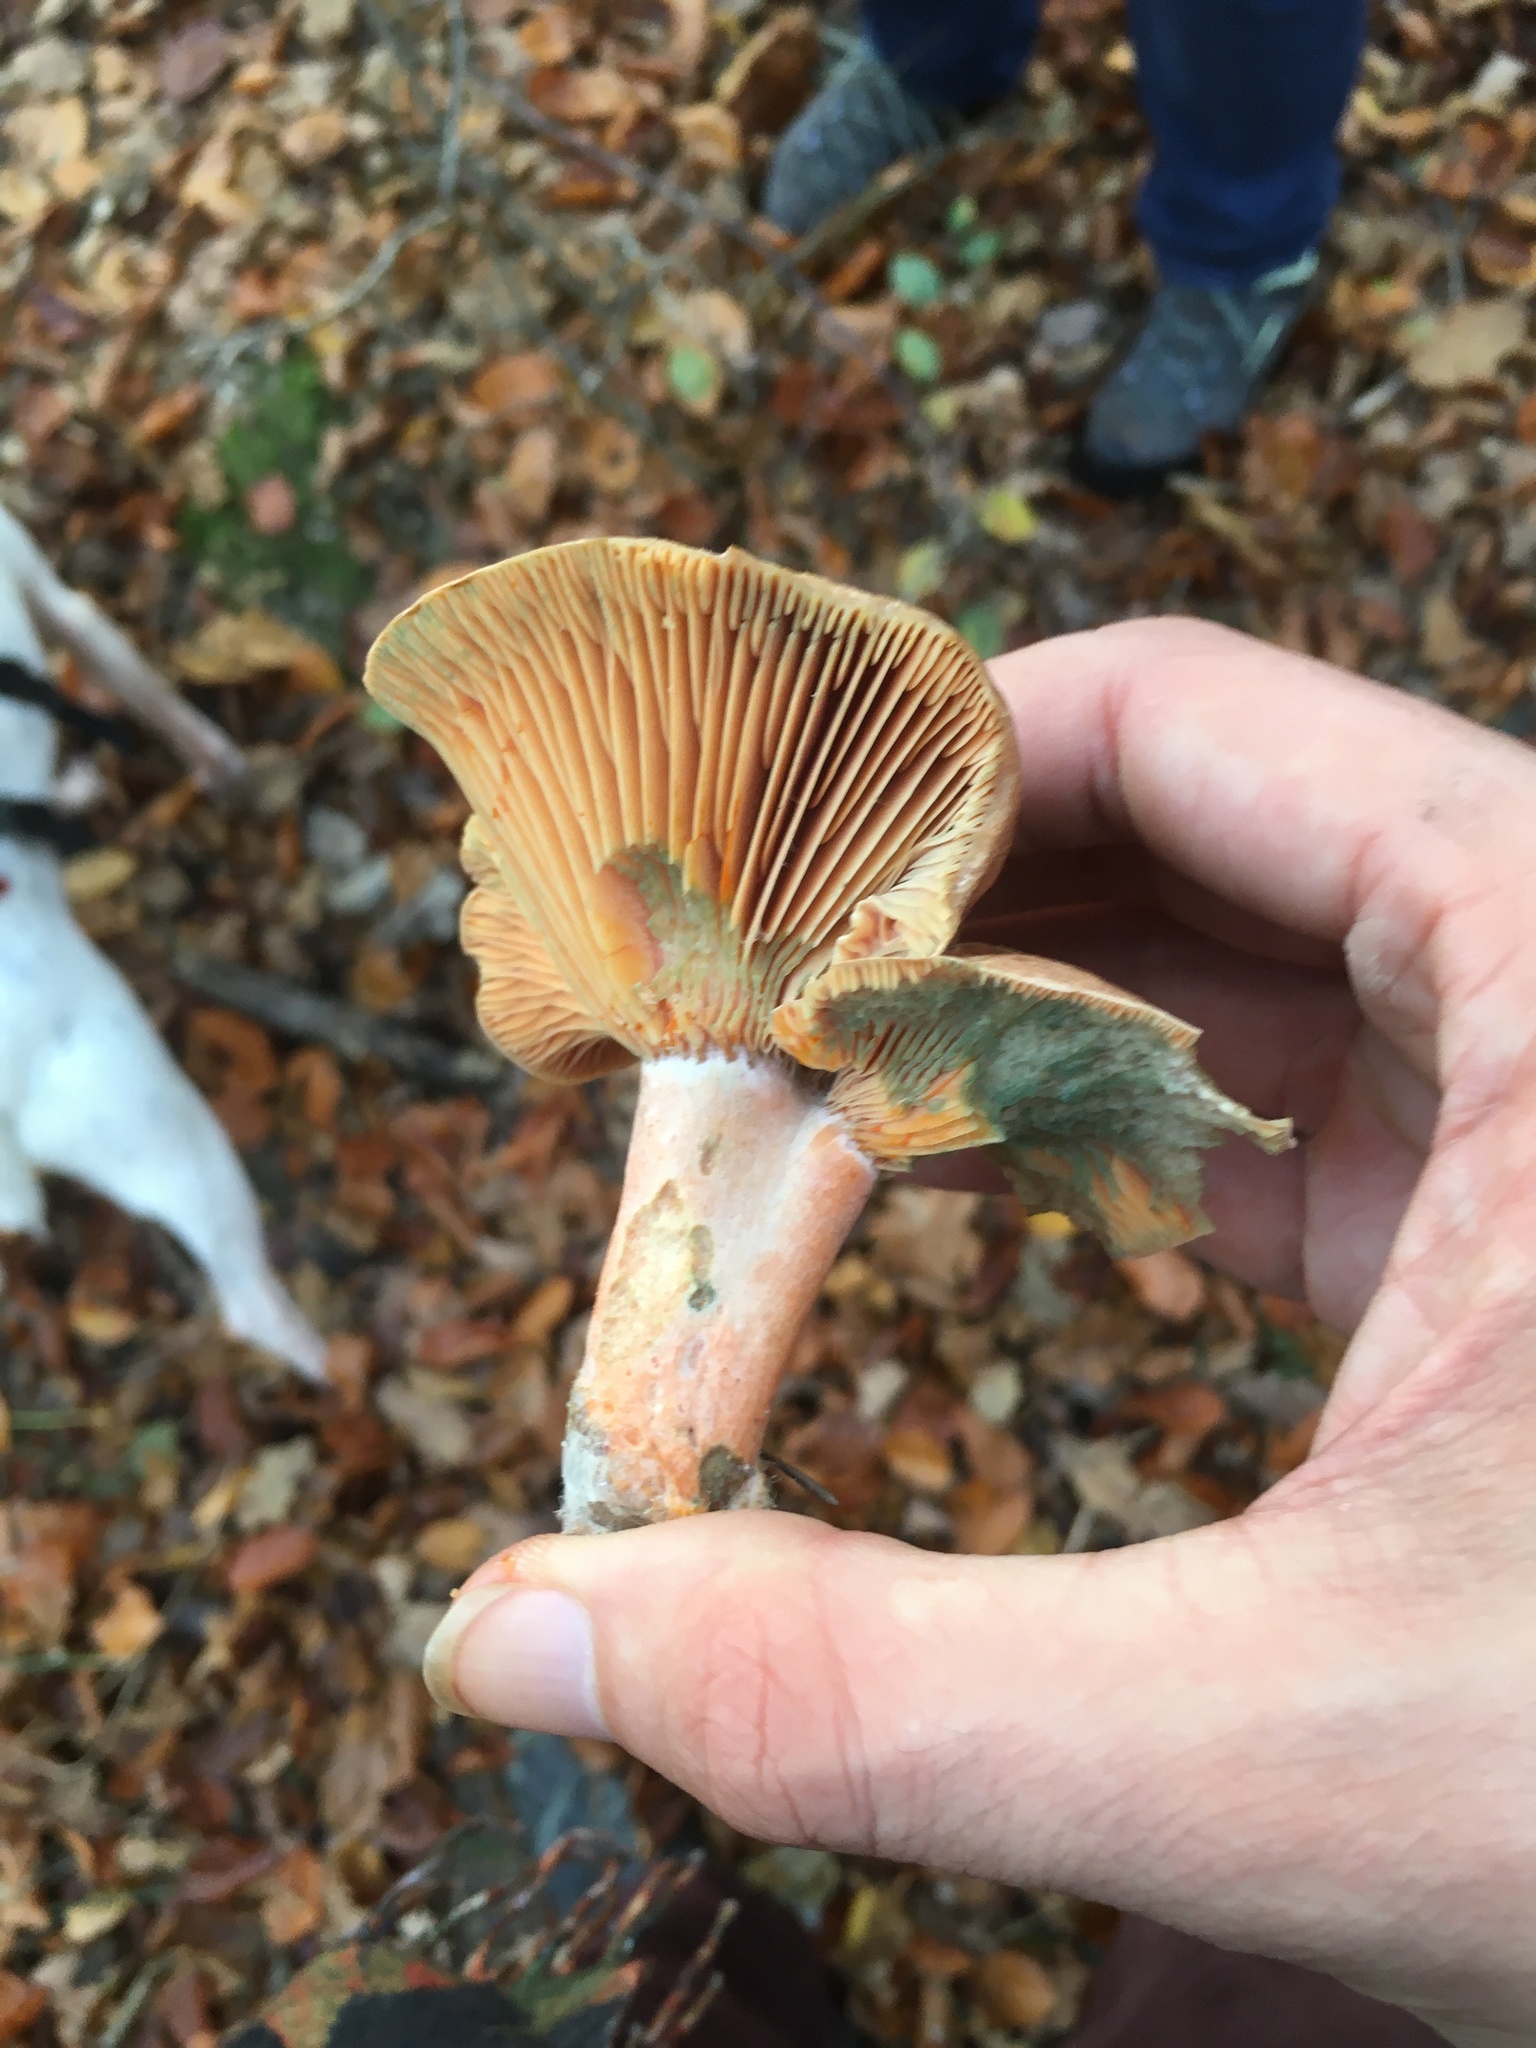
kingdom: Fungi
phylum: Basidiomycota
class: Agaricomycetes
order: Russulales
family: Russulaceae
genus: Lactarius
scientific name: Lactarius deliciosus
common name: Saffron milk-cap
